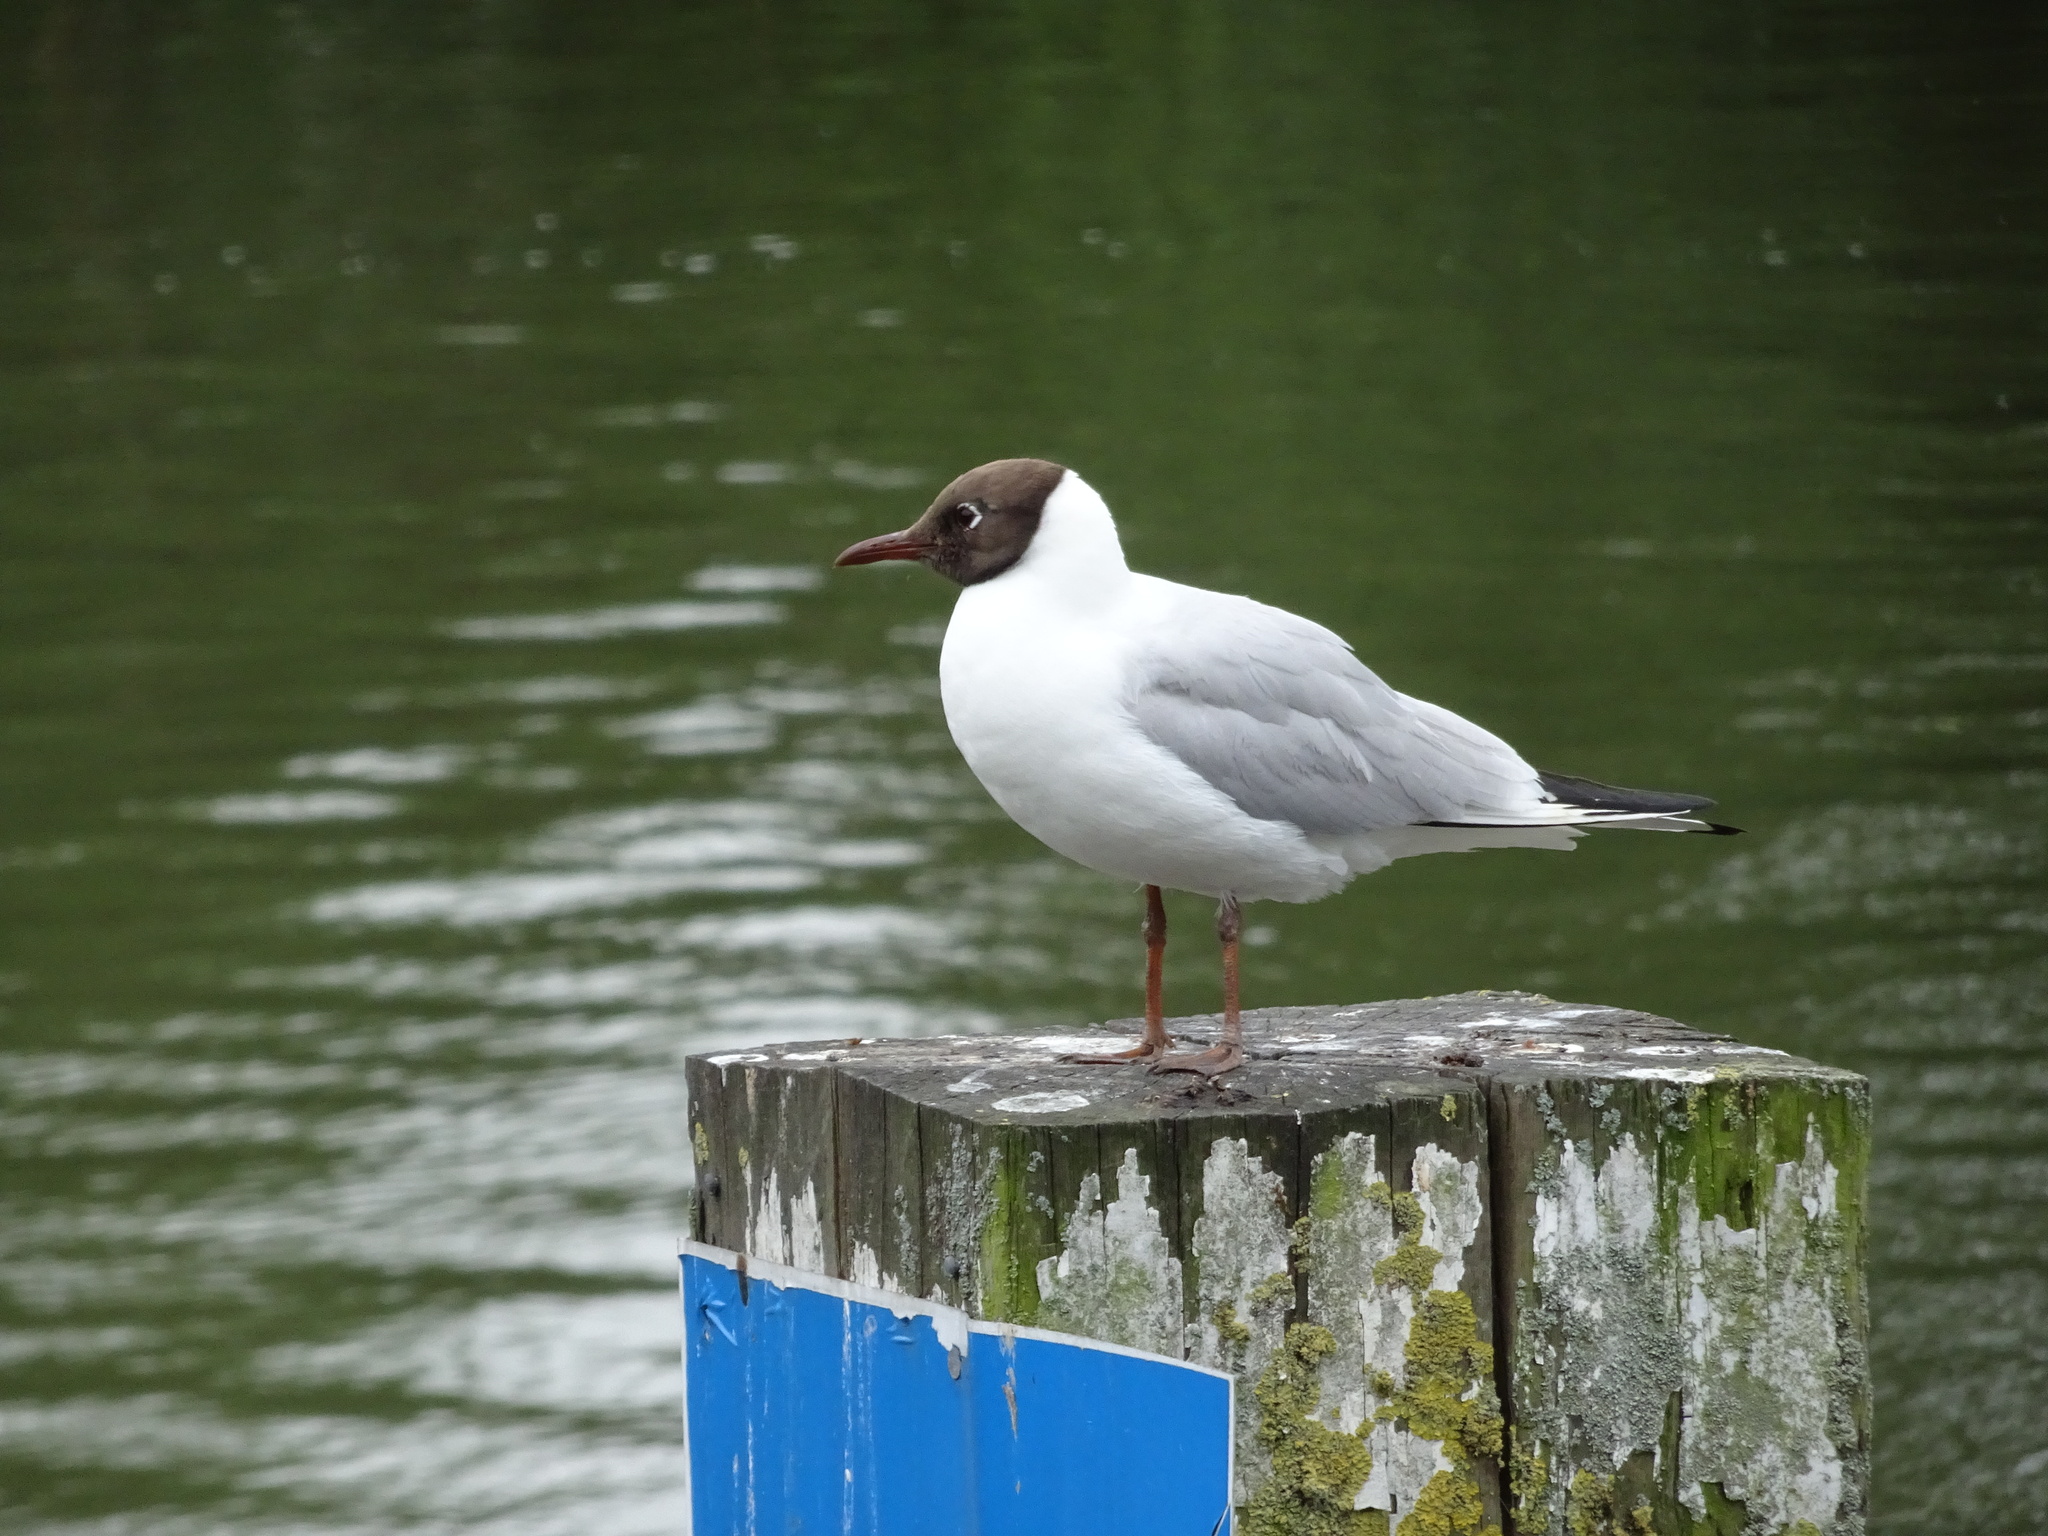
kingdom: Animalia
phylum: Chordata
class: Aves
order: Charadriiformes
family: Laridae
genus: Chroicocephalus
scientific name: Chroicocephalus ridibundus
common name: Black-headed gull
